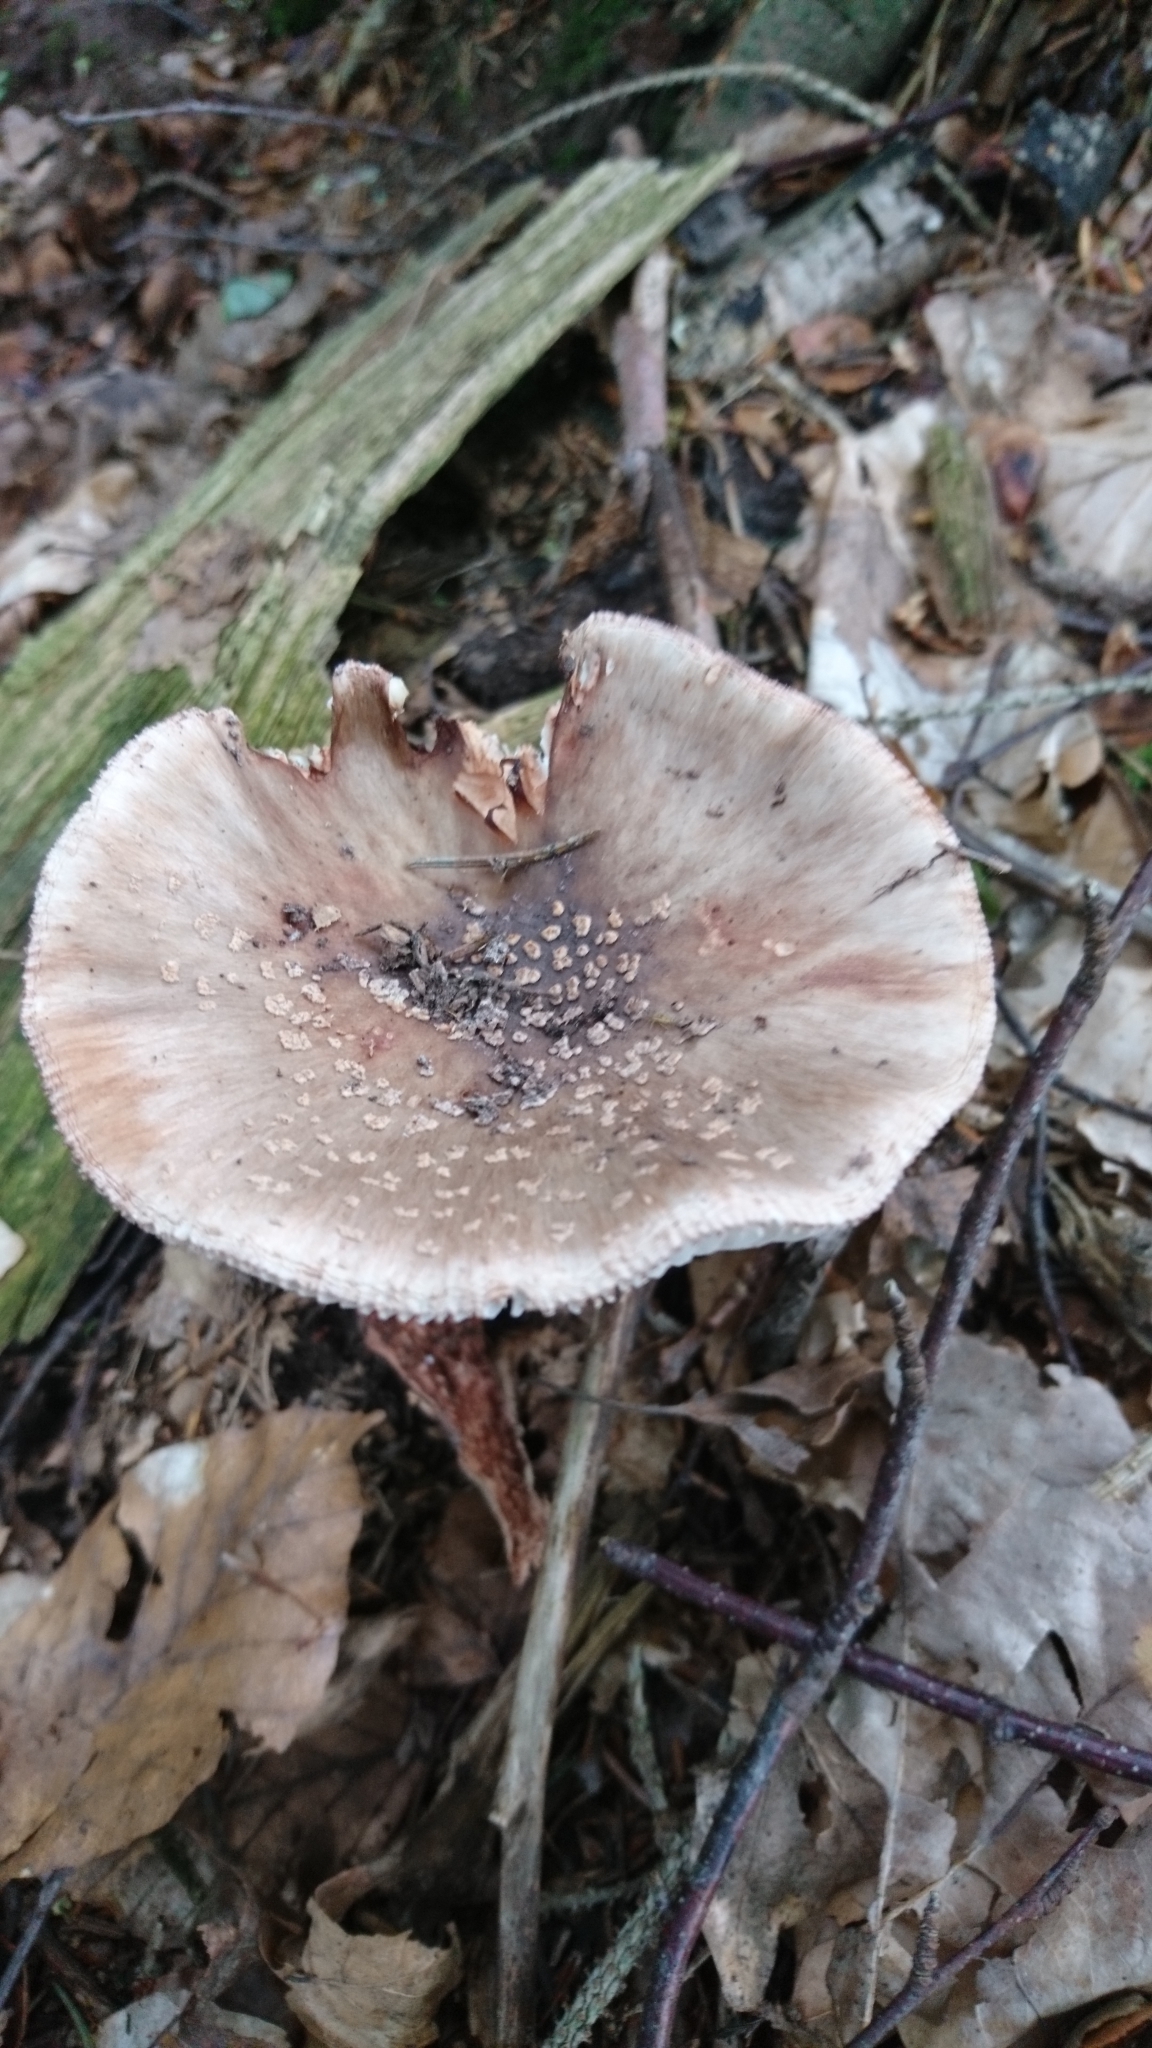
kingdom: Fungi
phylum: Basidiomycota
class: Agaricomycetes
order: Agaricales
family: Amanitaceae
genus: Amanita
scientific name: Amanita rubescens
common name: Blusher
